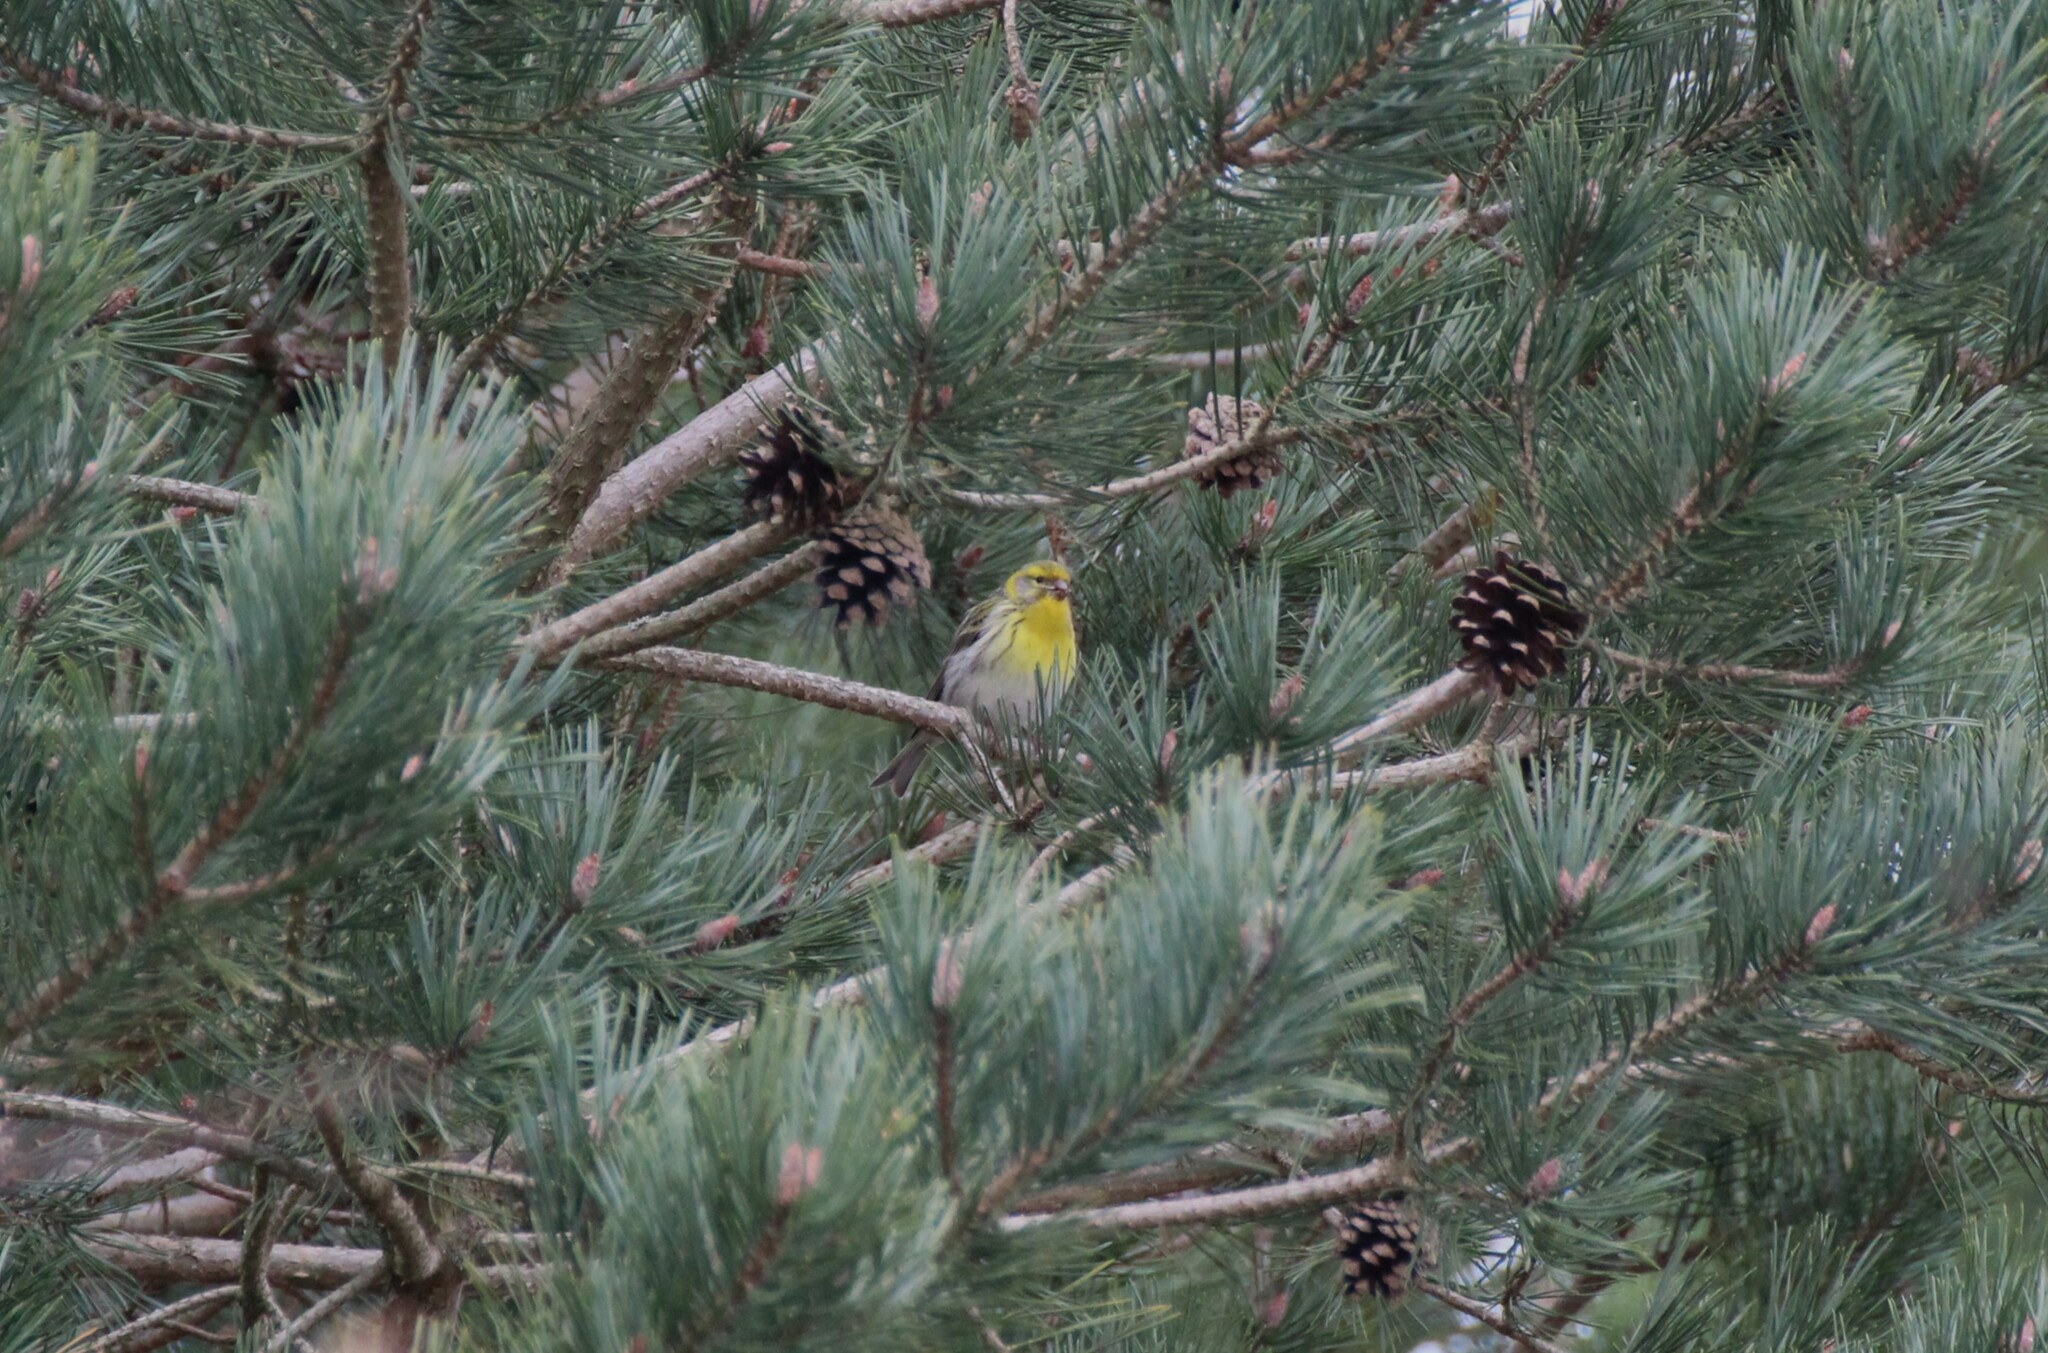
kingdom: Animalia
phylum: Chordata
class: Aves
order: Passeriformes
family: Fringillidae
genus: Serinus
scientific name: Serinus serinus
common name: European serin
